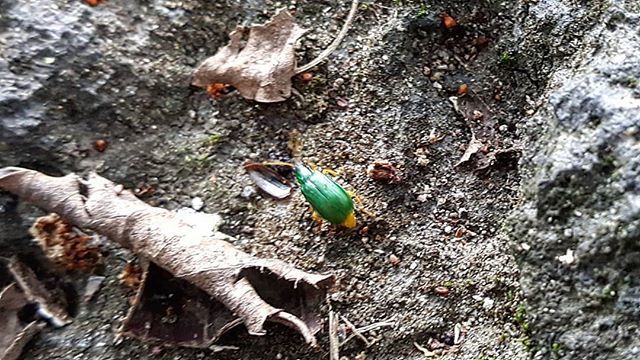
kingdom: Animalia
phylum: Arthropoda
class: Insecta
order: Coleoptera
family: Chrysomelidae
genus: Diabrotica
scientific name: Diabrotica
